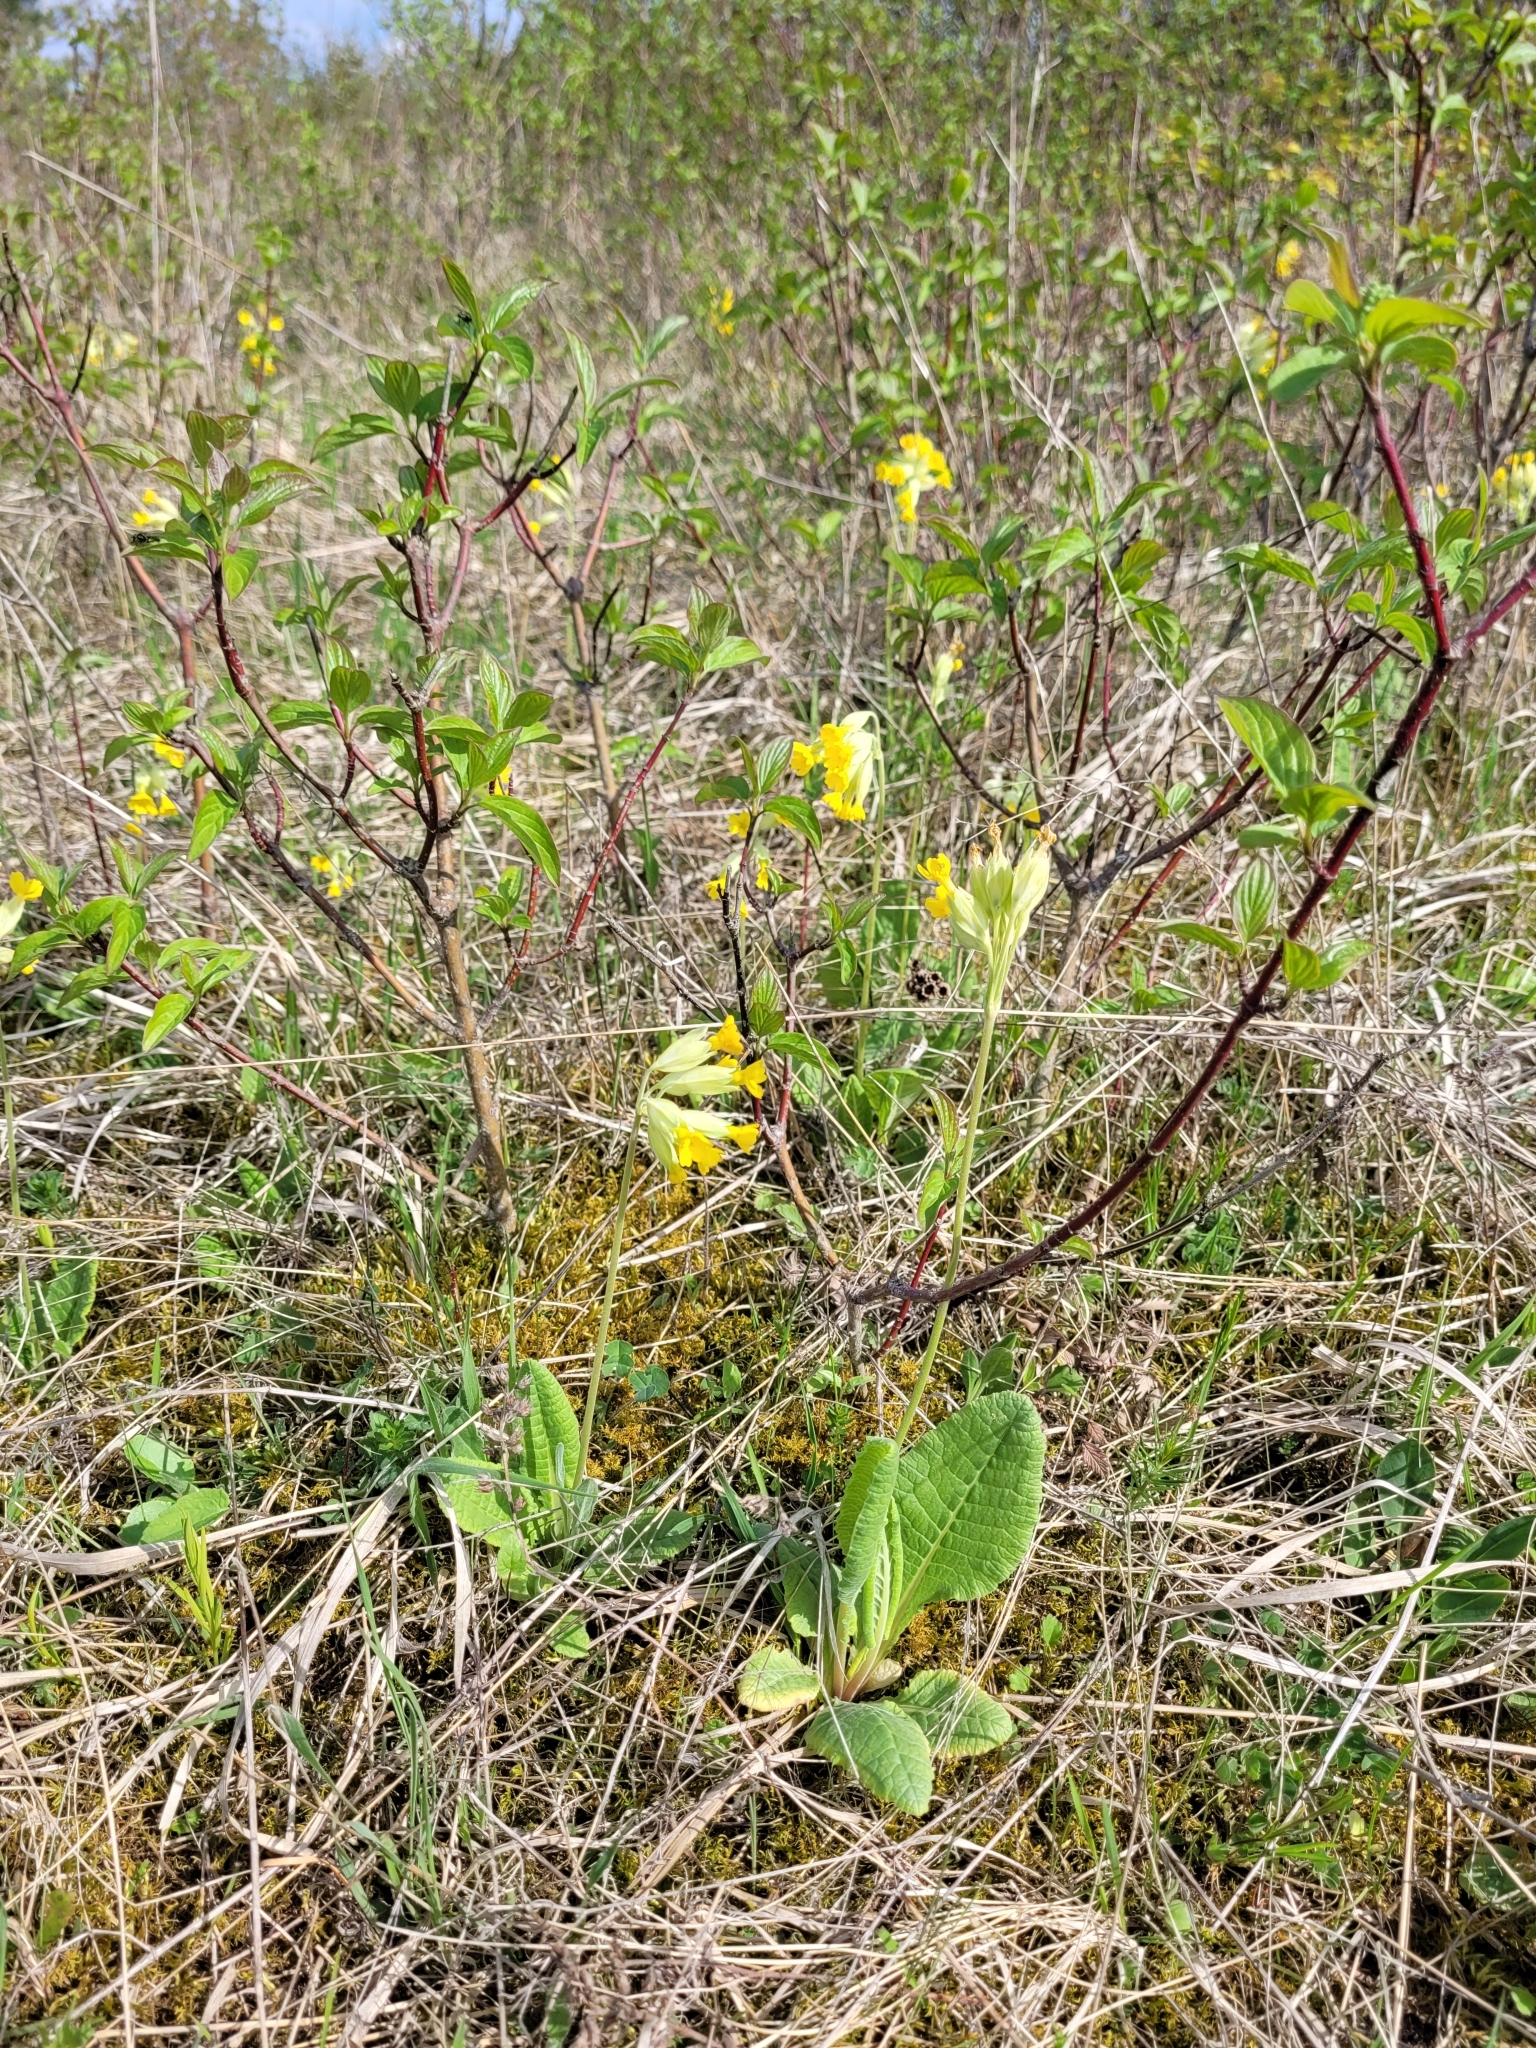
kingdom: Plantae
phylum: Tracheophyta
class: Magnoliopsida
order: Ericales
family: Primulaceae
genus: Primula
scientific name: Primula veris
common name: Cowslip
